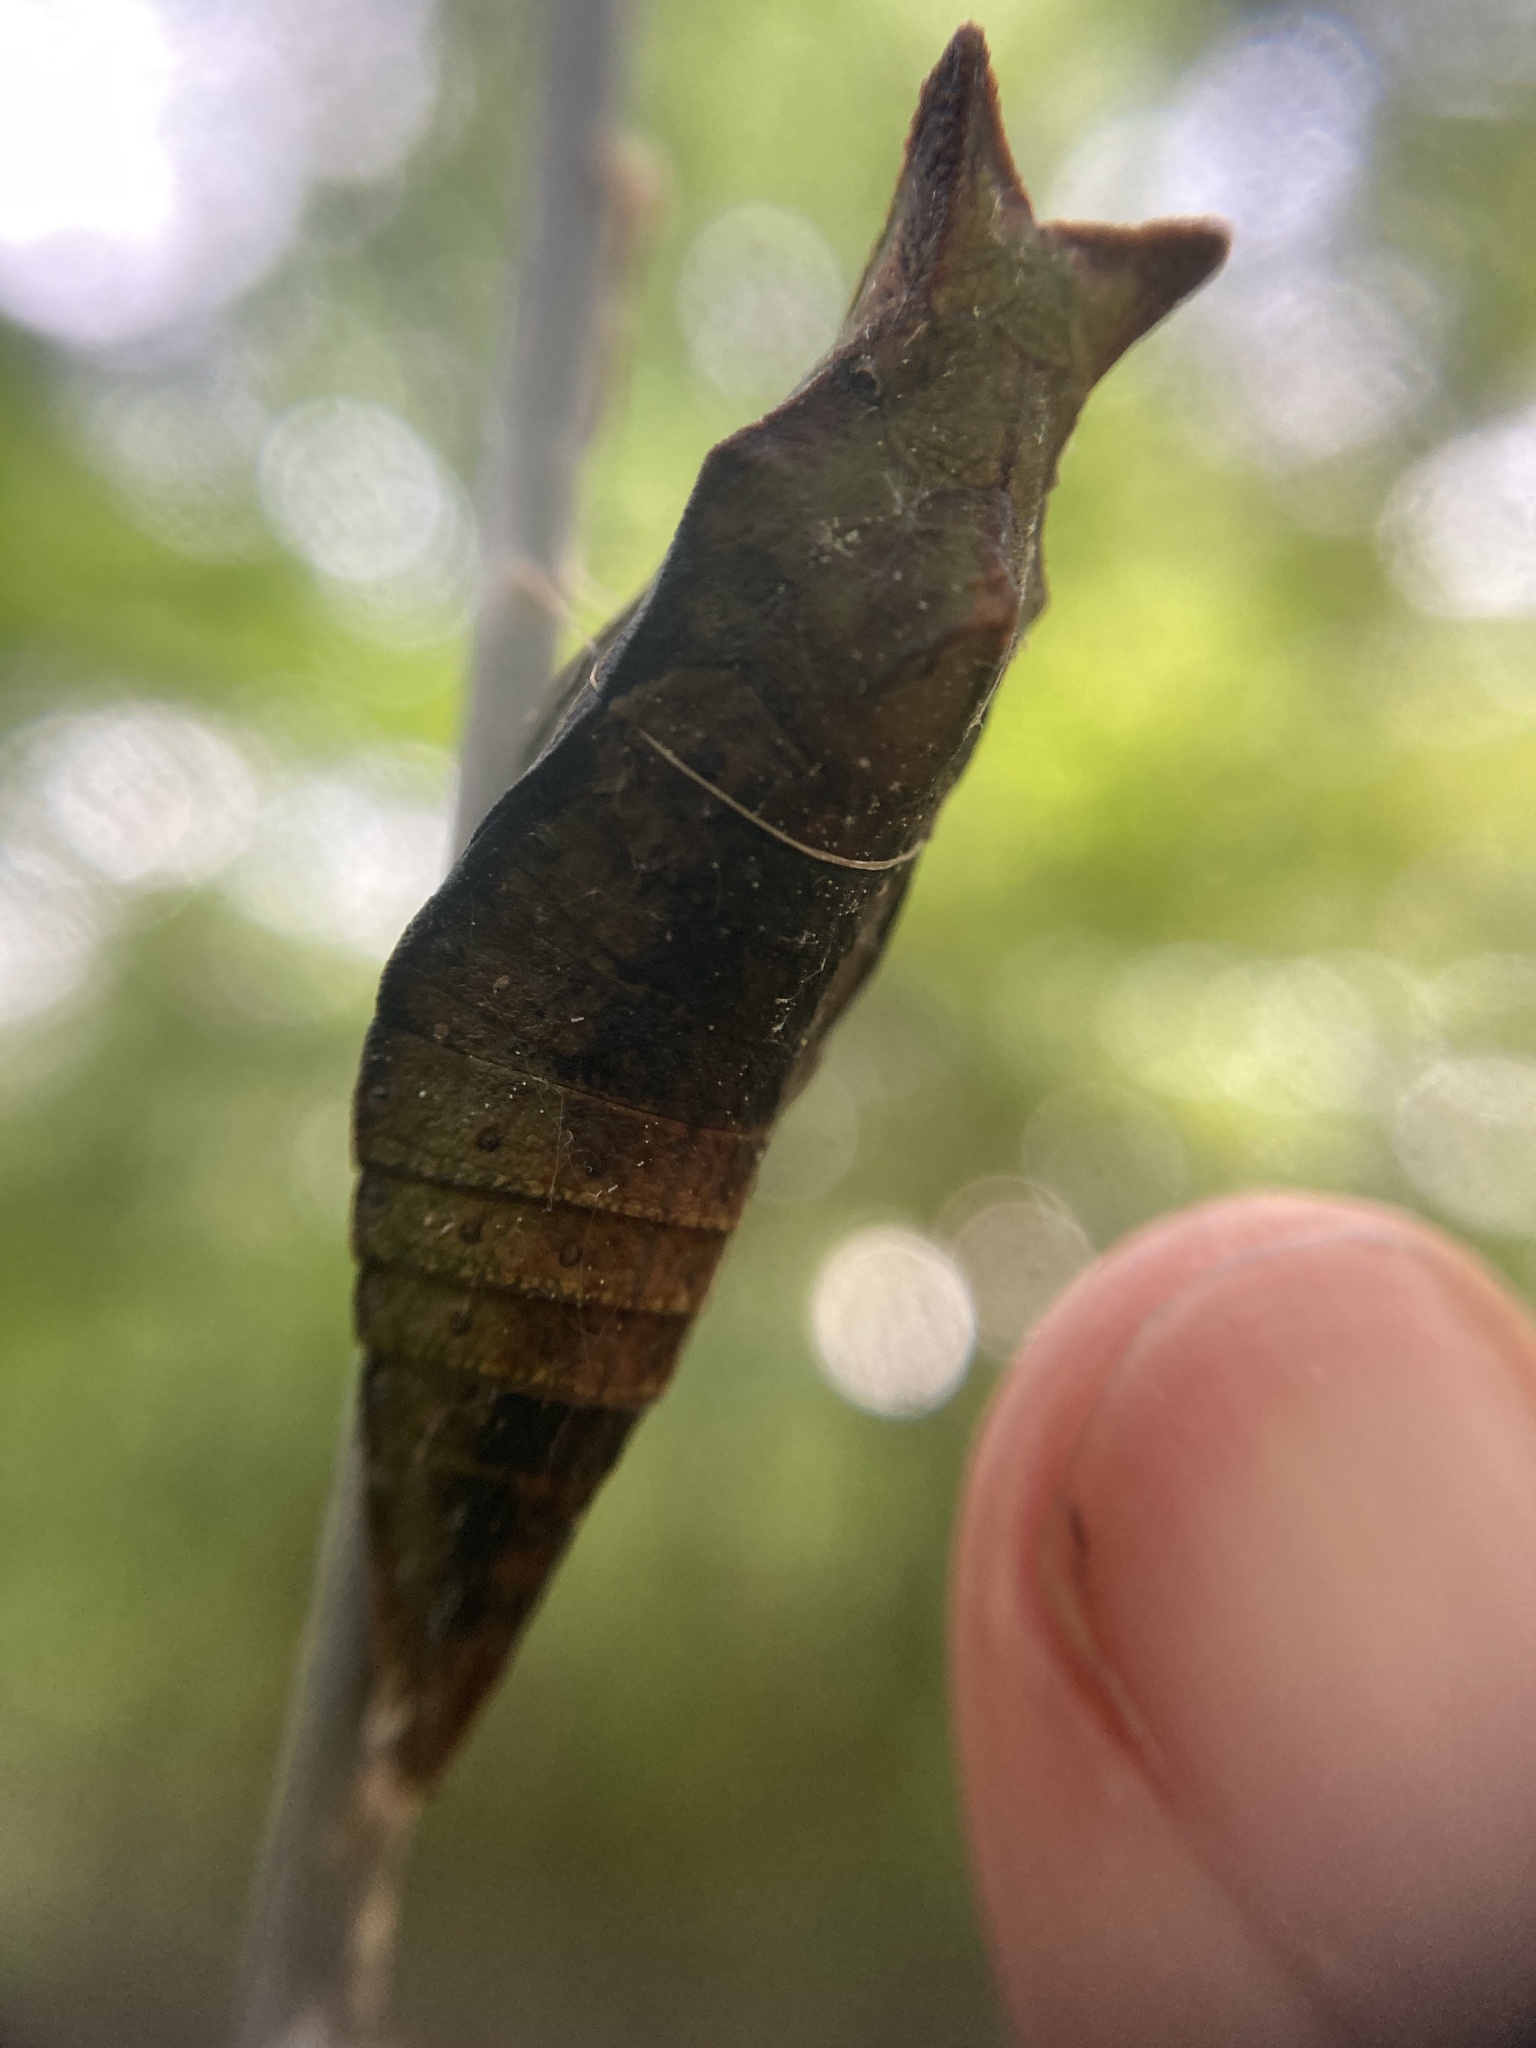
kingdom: Animalia
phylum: Arthropoda
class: Insecta
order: Lepidoptera
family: Papilionidae
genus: Papilio
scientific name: Papilio troilus
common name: Spicebush swallowtail
